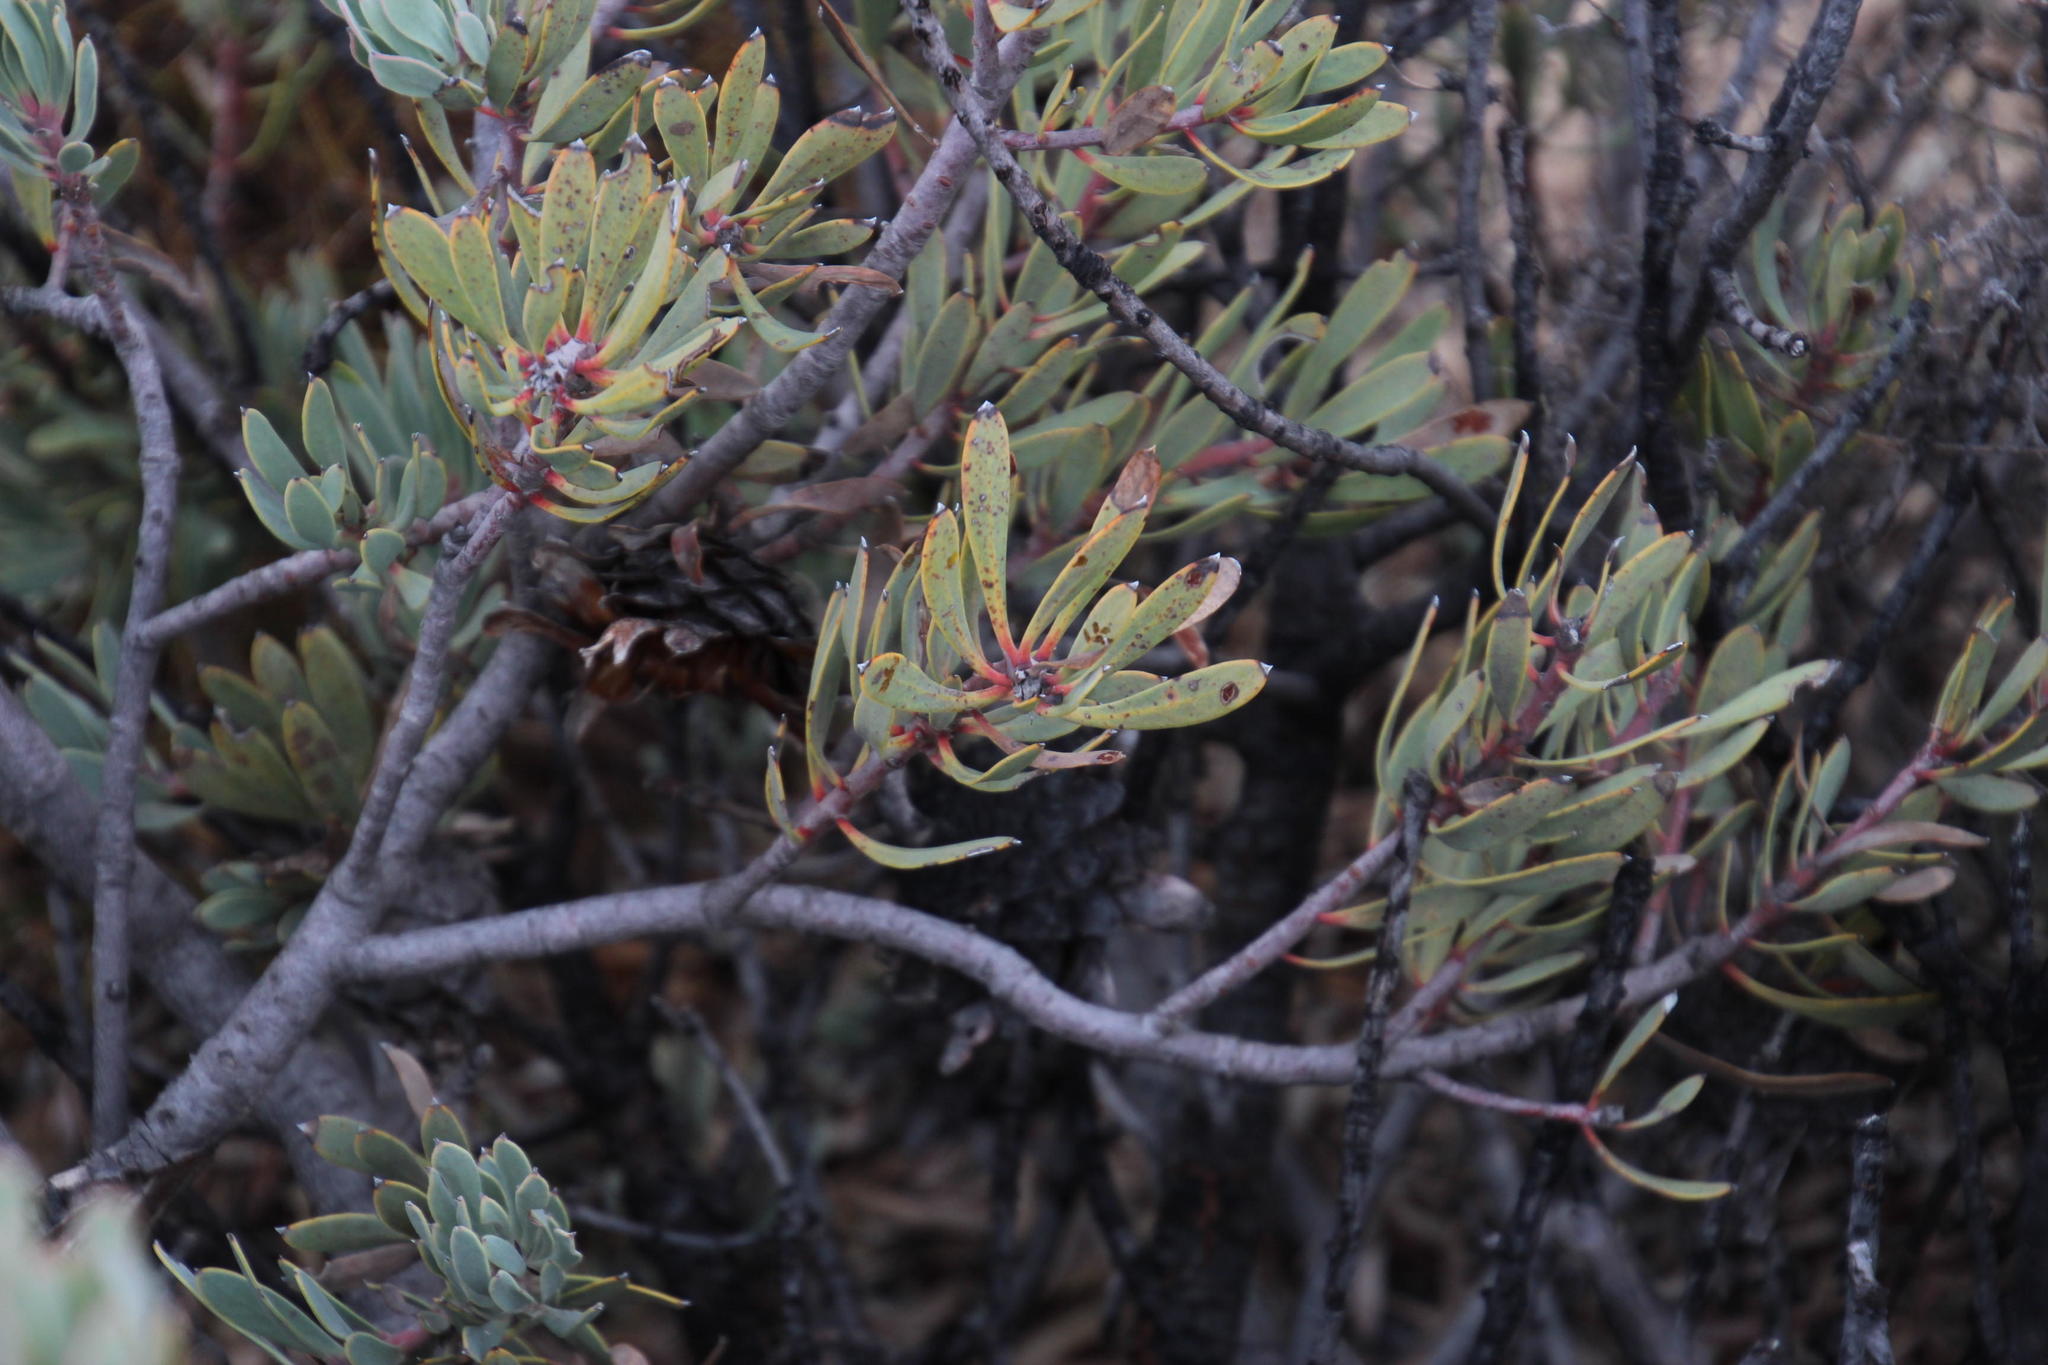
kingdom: Plantae
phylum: Tracheophyta
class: Magnoliopsida
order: Proteales
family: Proteaceae
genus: Protea
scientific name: Protea pendula
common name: Nodding sugarbush
